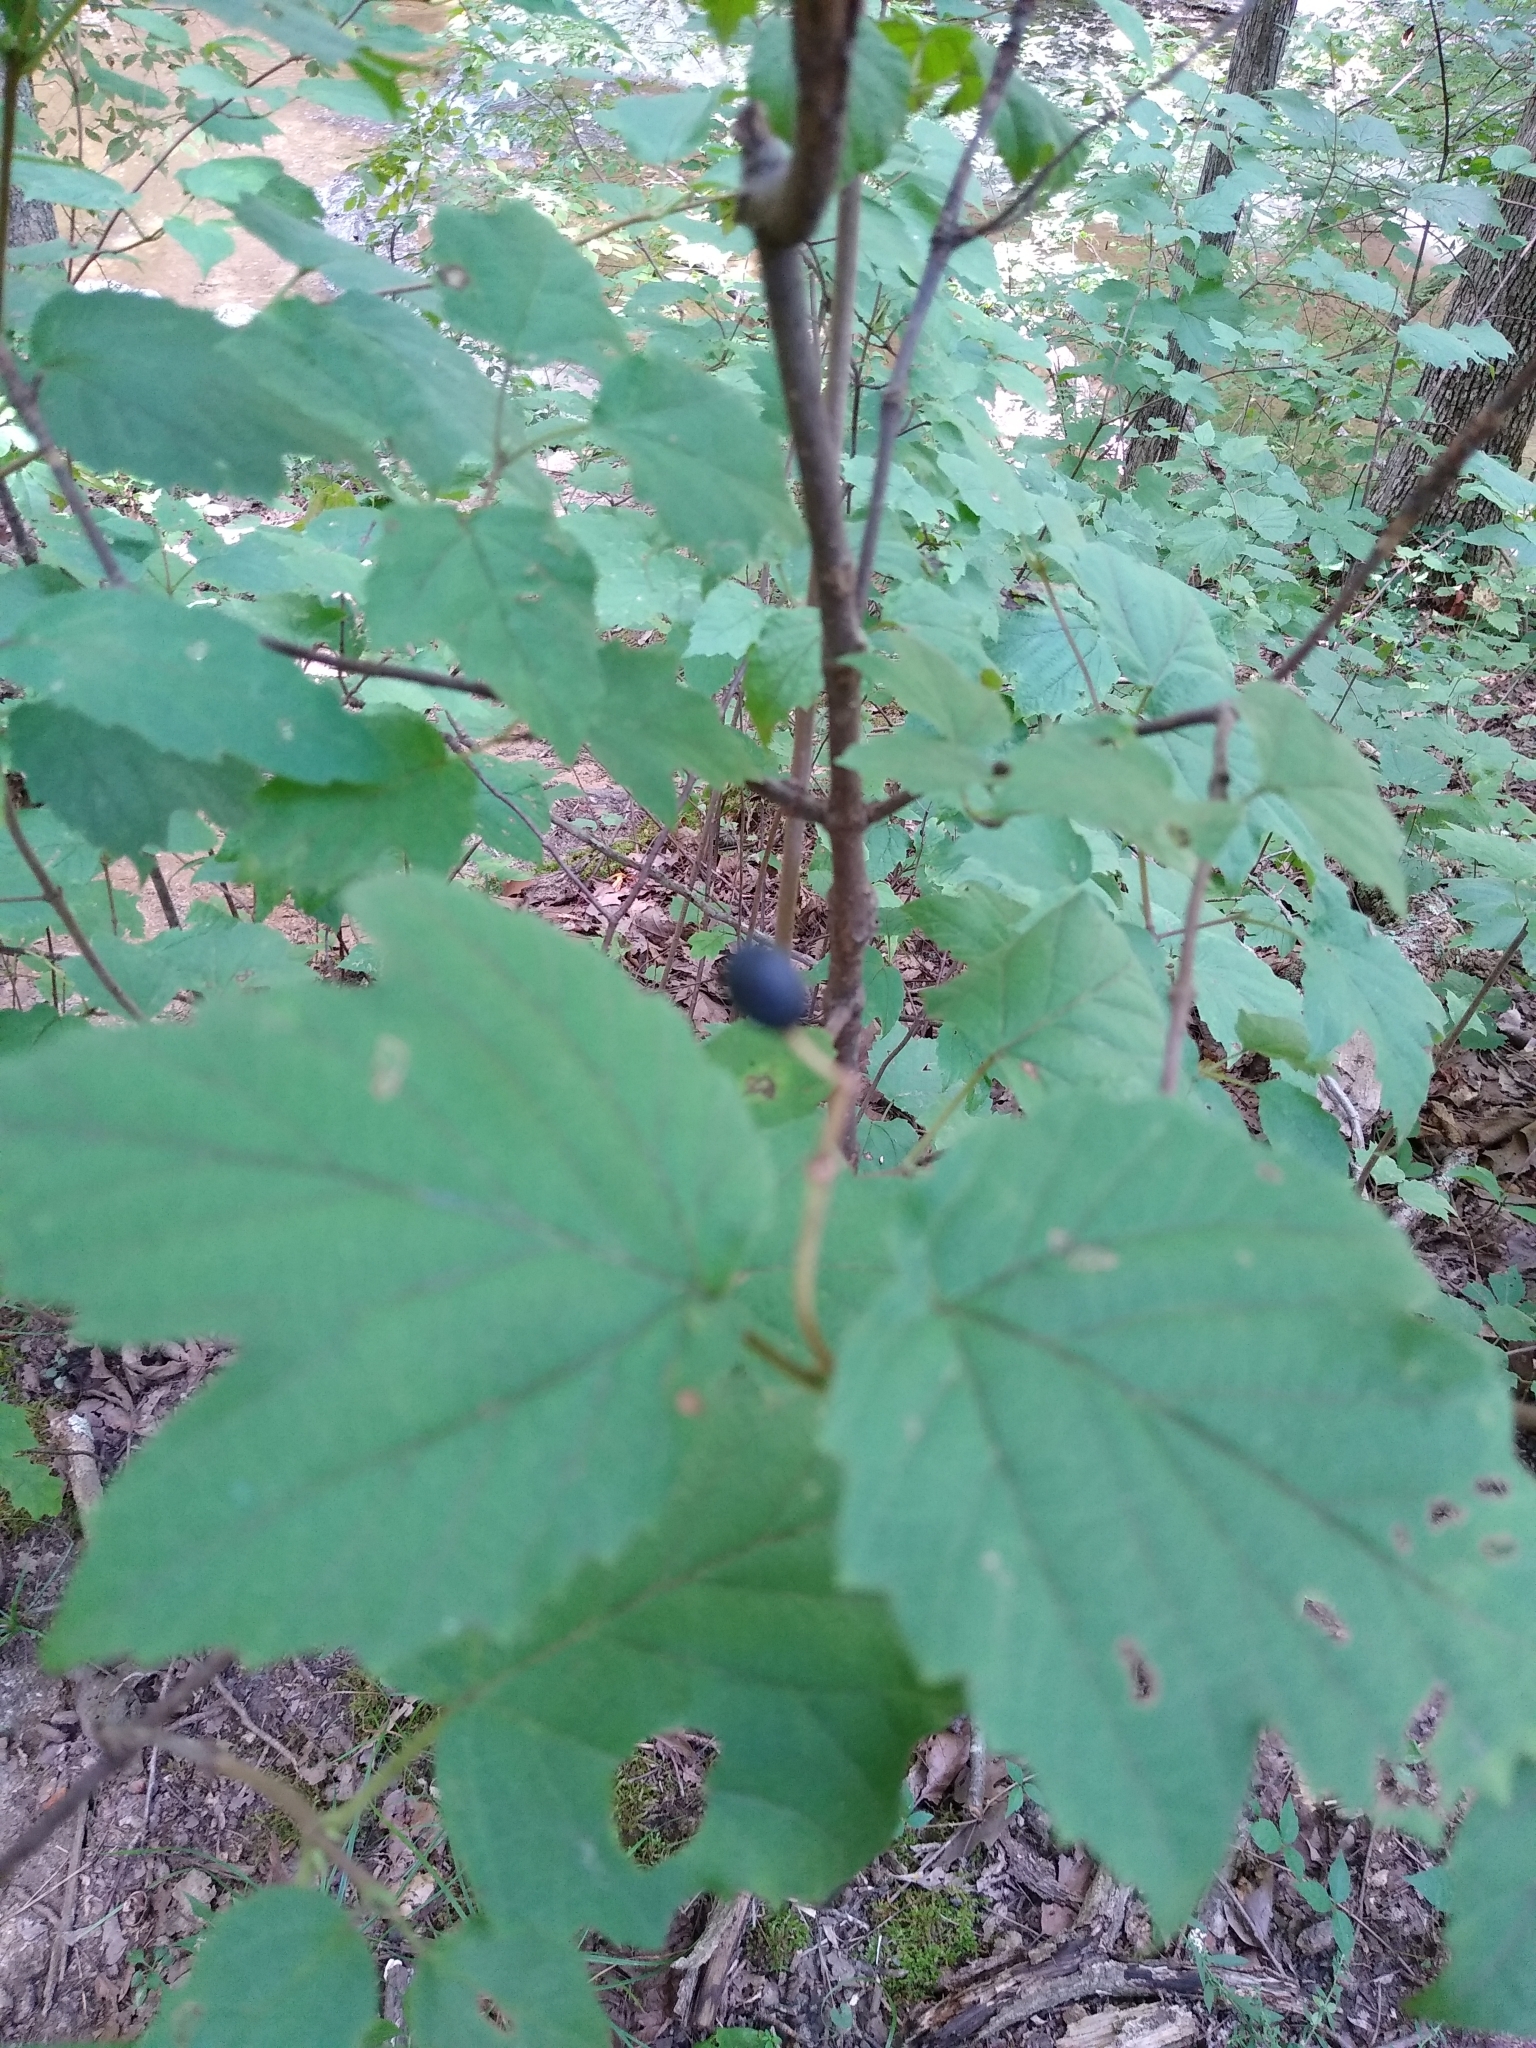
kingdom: Plantae
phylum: Tracheophyta
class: Magnoliopsida
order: Dipsacales
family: Viburnaceae
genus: Viburnum
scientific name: Viburnum acerifolium
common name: Dockmackie
